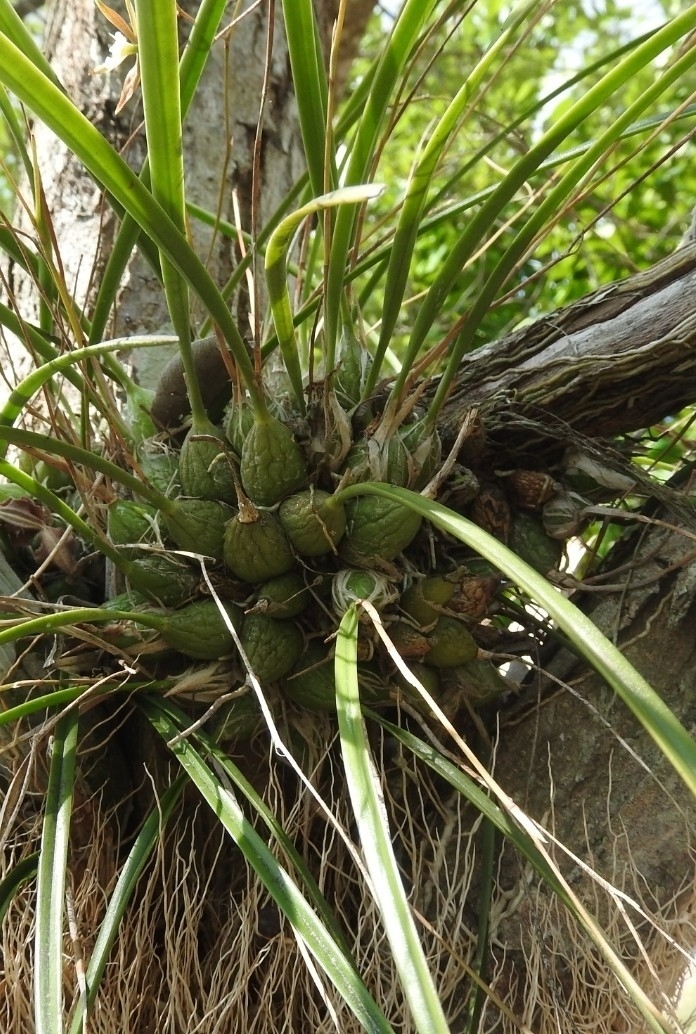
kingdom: Plantae
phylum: Tracheophyta
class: Liliopsida
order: Asparagales
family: Orchidaceae
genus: Encyclia
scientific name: Encyclia nematocaulon
